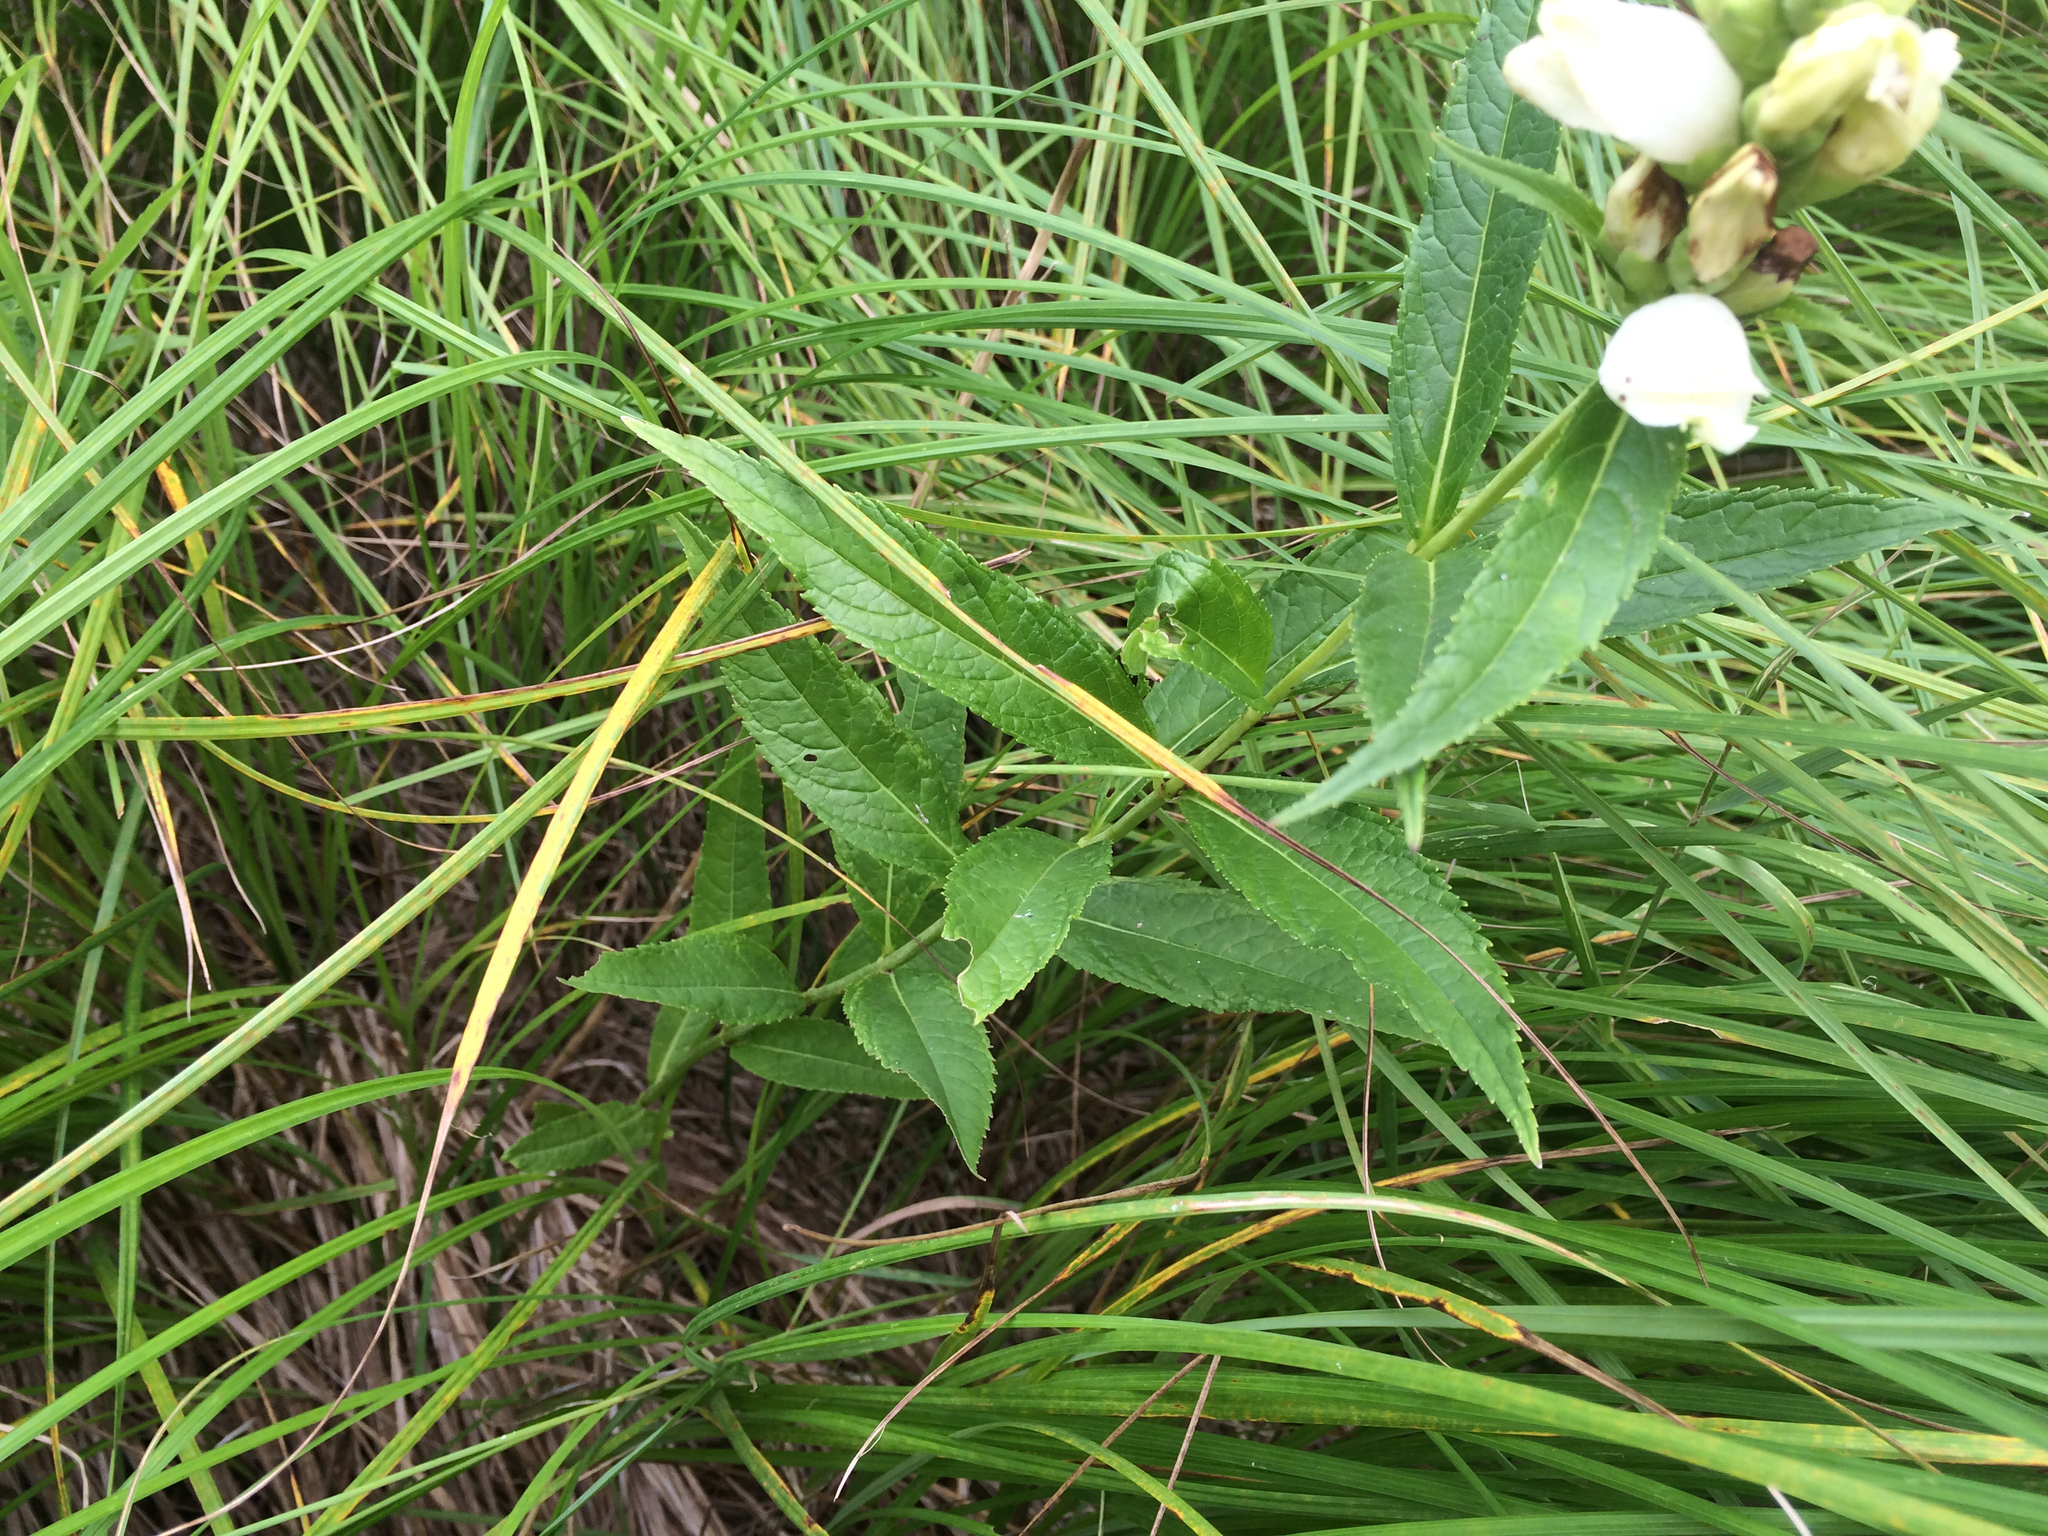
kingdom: Plantae
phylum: Tracheophyta
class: Magnoliopsida
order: Lamiales
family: Plantaginaceae
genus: Chelone
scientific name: Chelone glabra
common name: Snakehead
